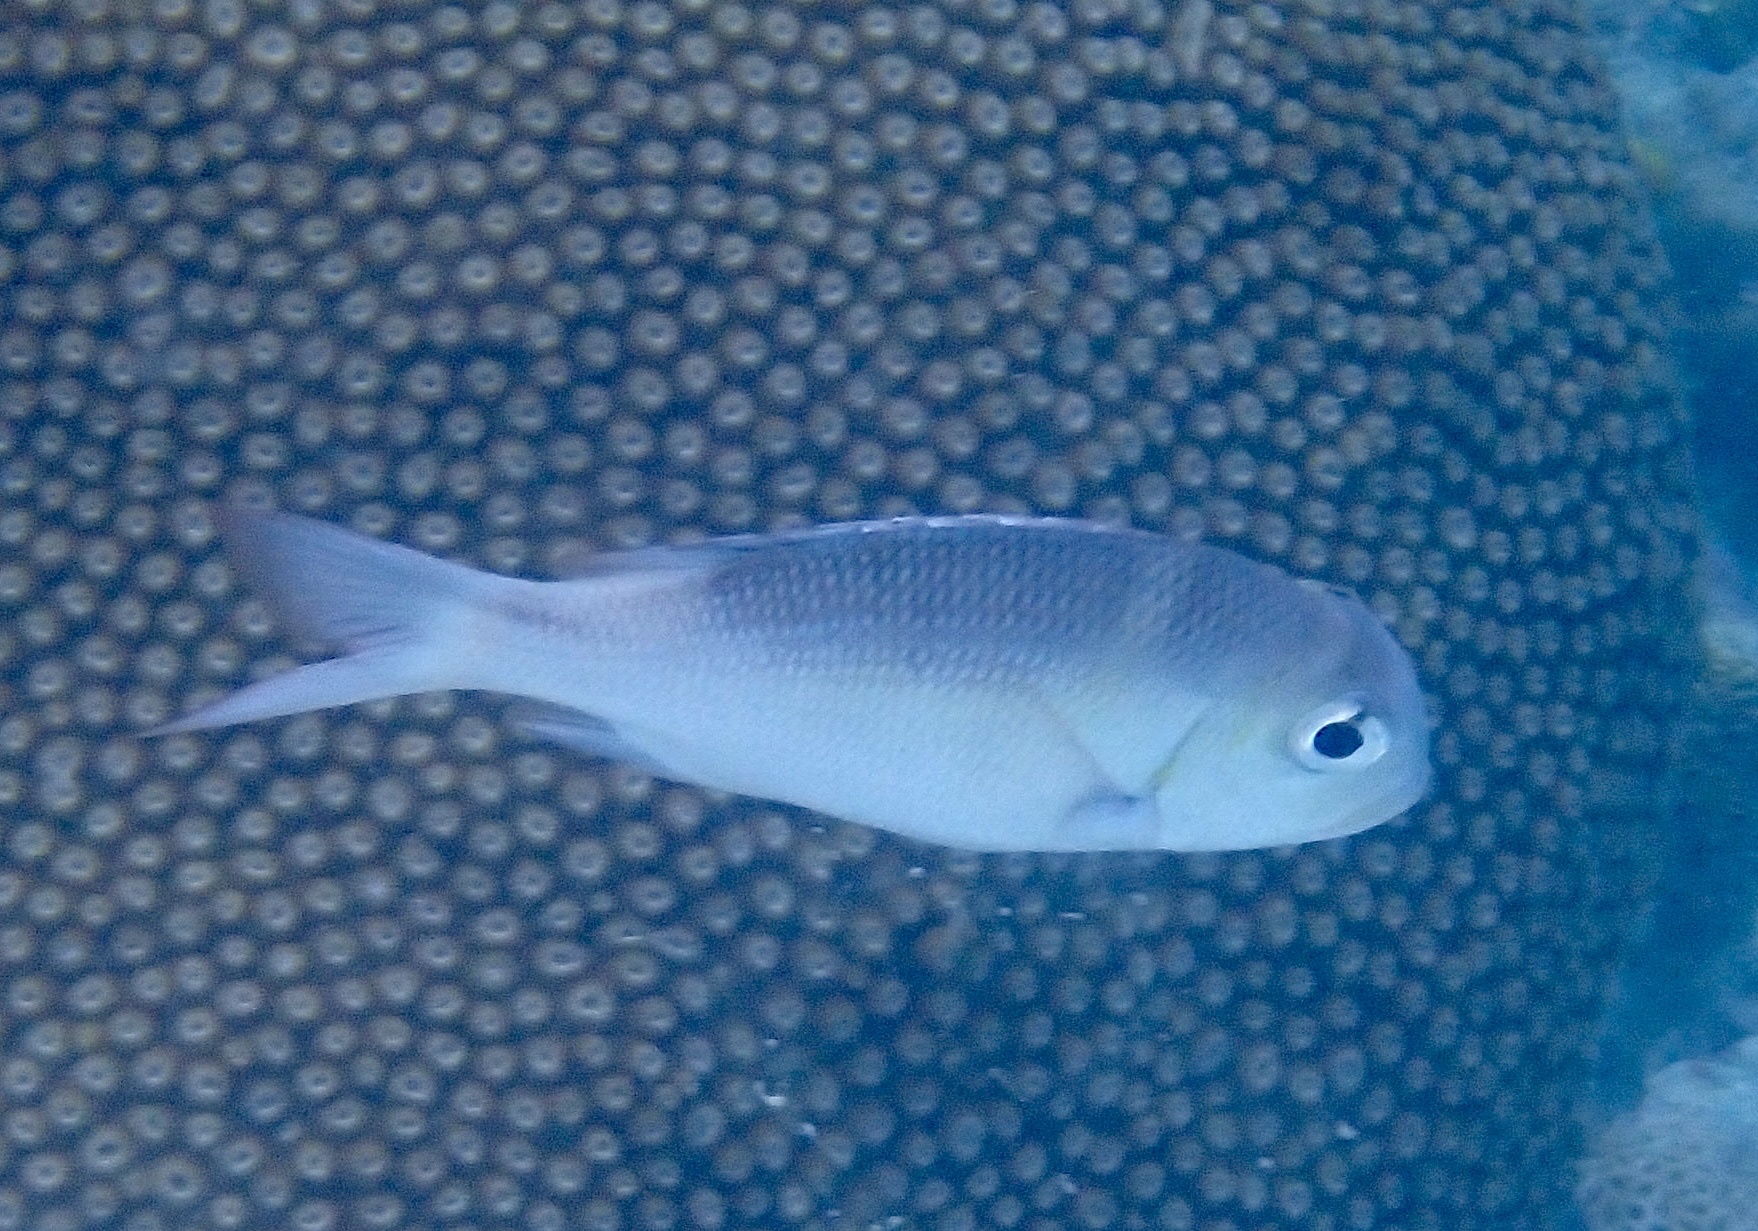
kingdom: Animalia
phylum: Chordata
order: Perciformes
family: Lethrinidae
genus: Monotaxis
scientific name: Monotaxis grandoculis
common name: Bigeye emperor
